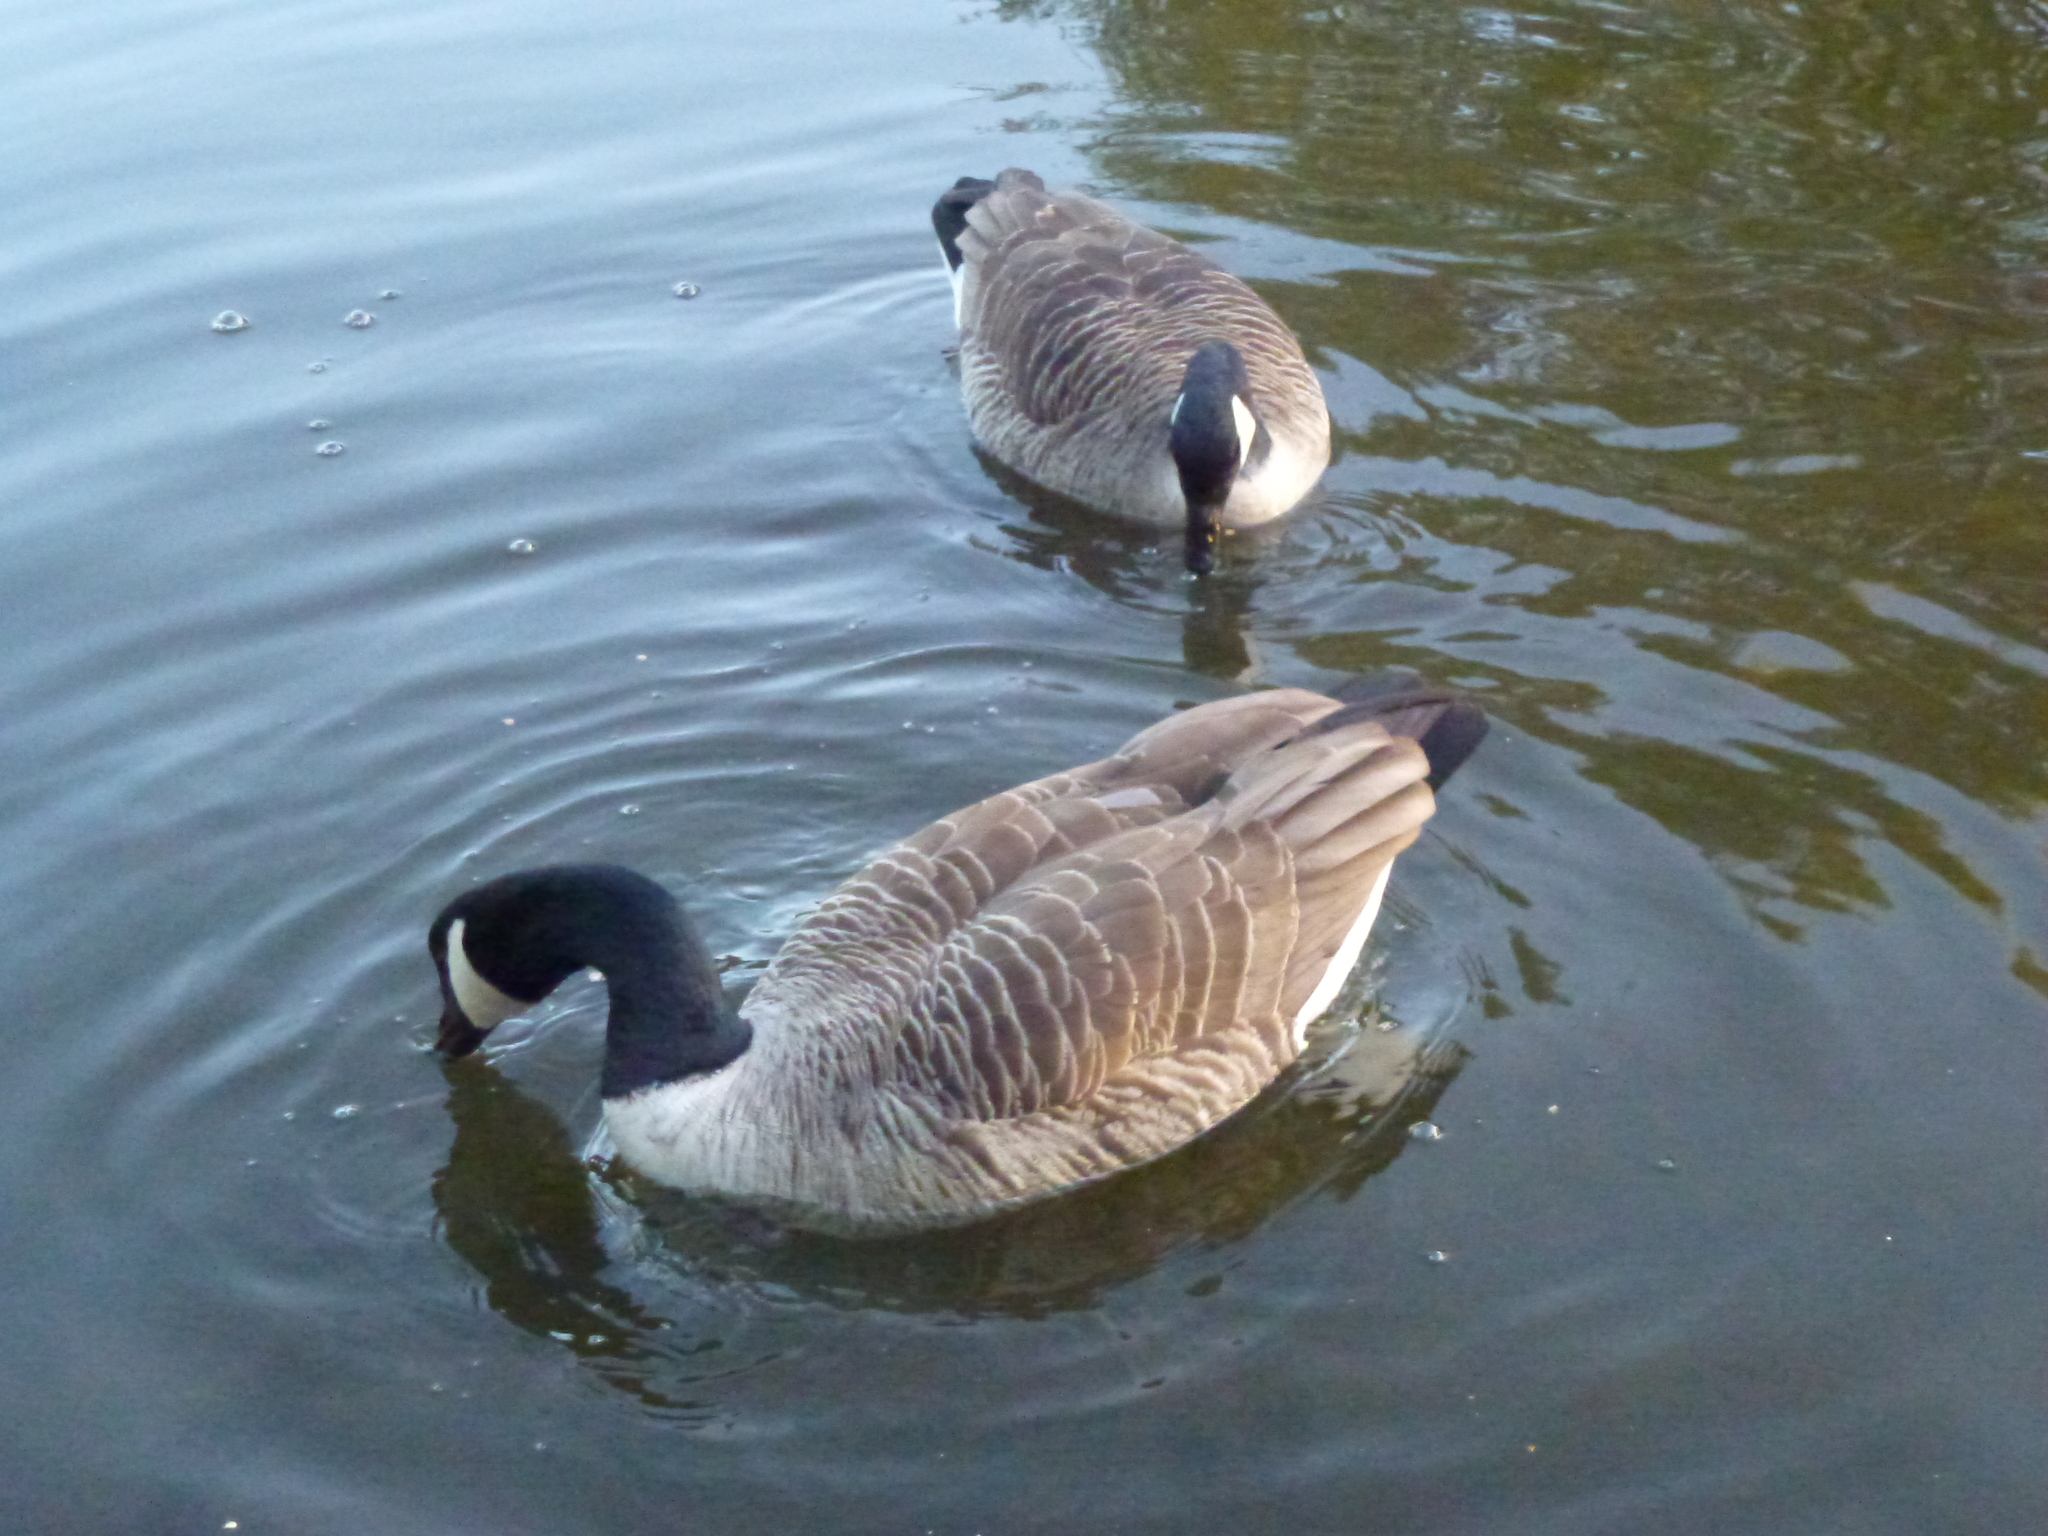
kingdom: Animalia
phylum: Chordata
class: Aves
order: Anseriformes
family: Anatidae
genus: Branta
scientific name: Branta canadensis
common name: Canada goose
